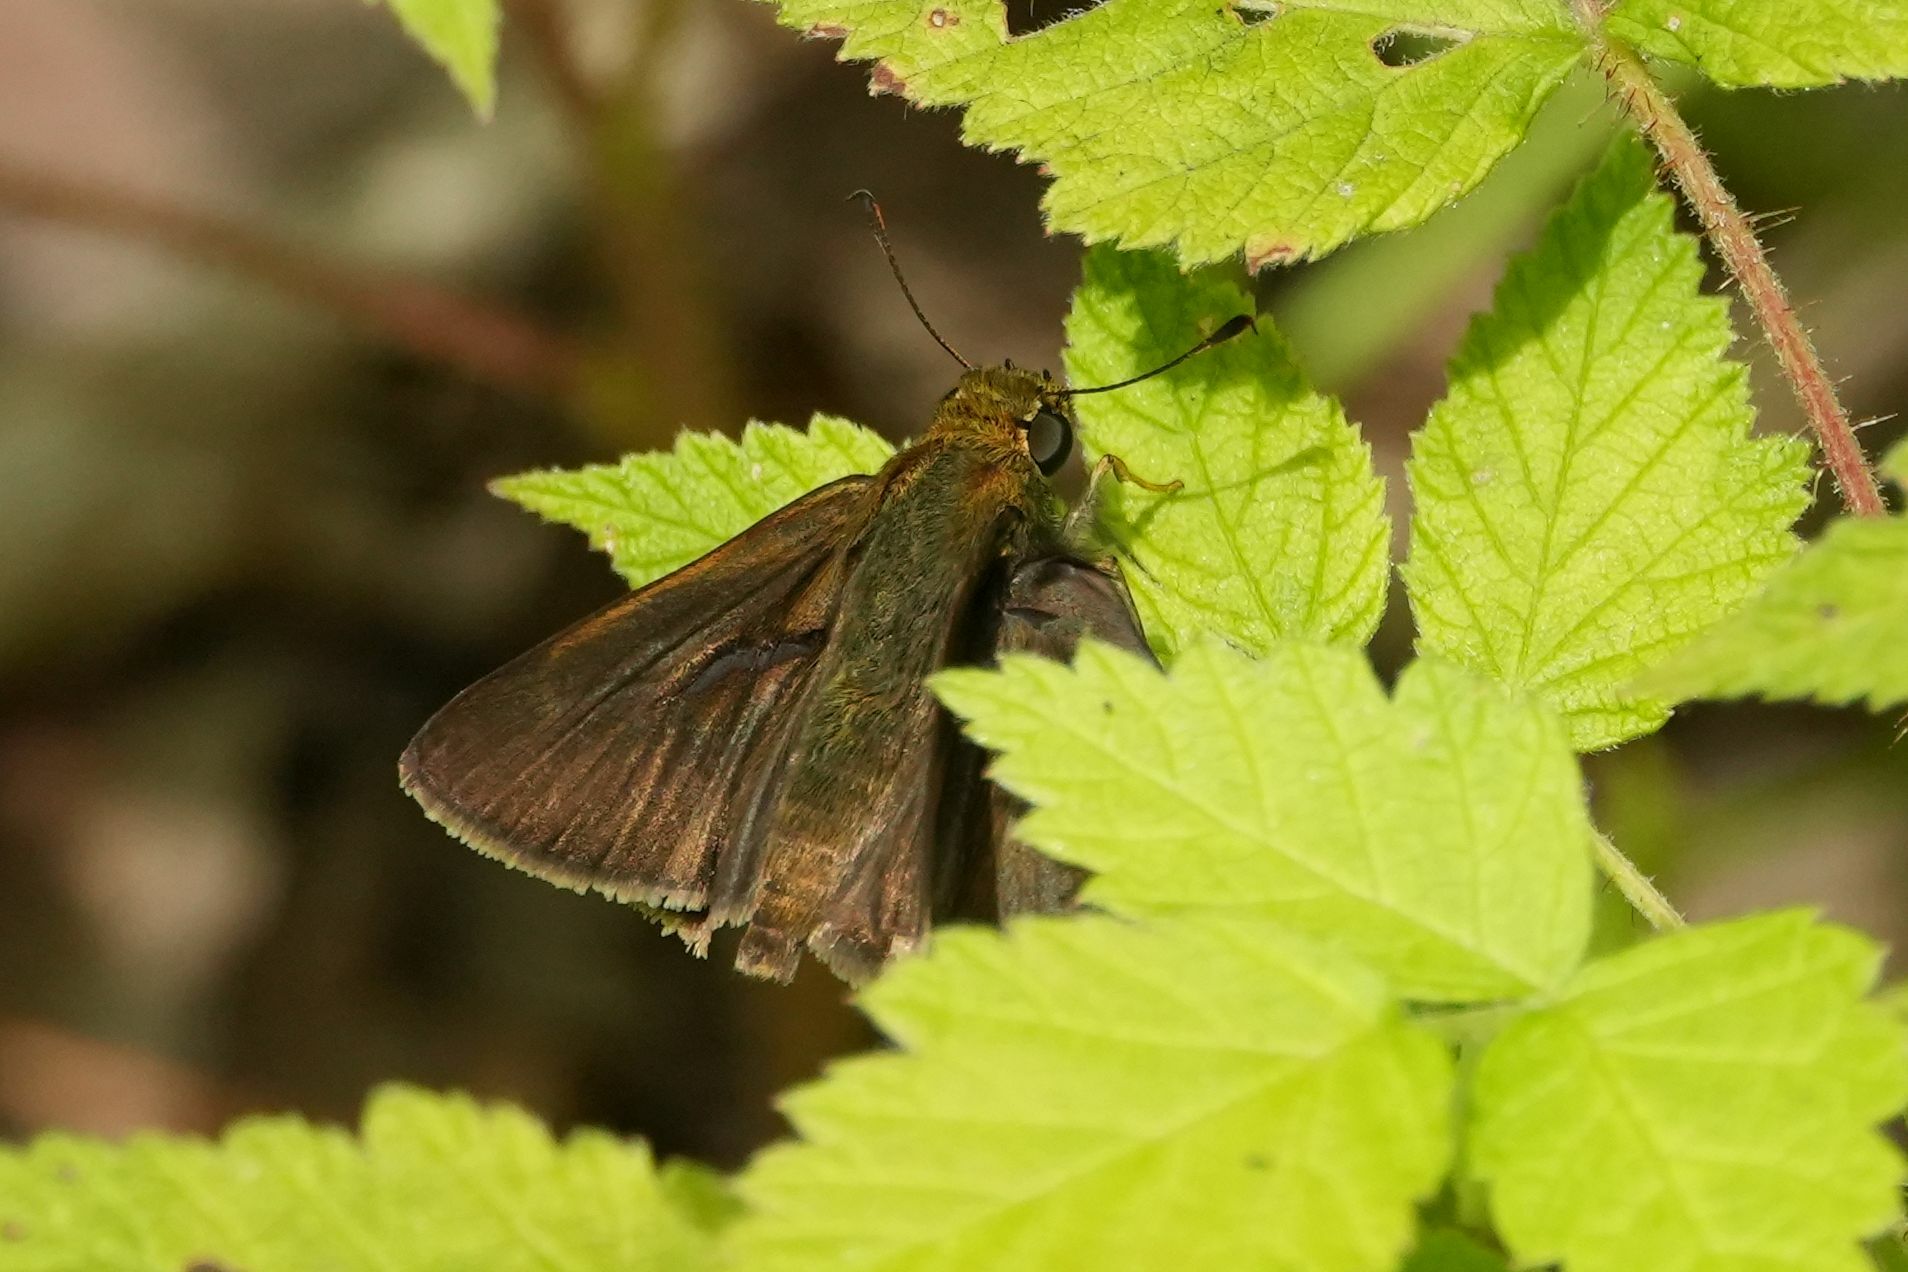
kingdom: Animalia
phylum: Arthropoda
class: Insecta
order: Lepidoptera
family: Hesperiidae
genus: Euphyes
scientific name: Euphyes vestris
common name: Dun skipper
